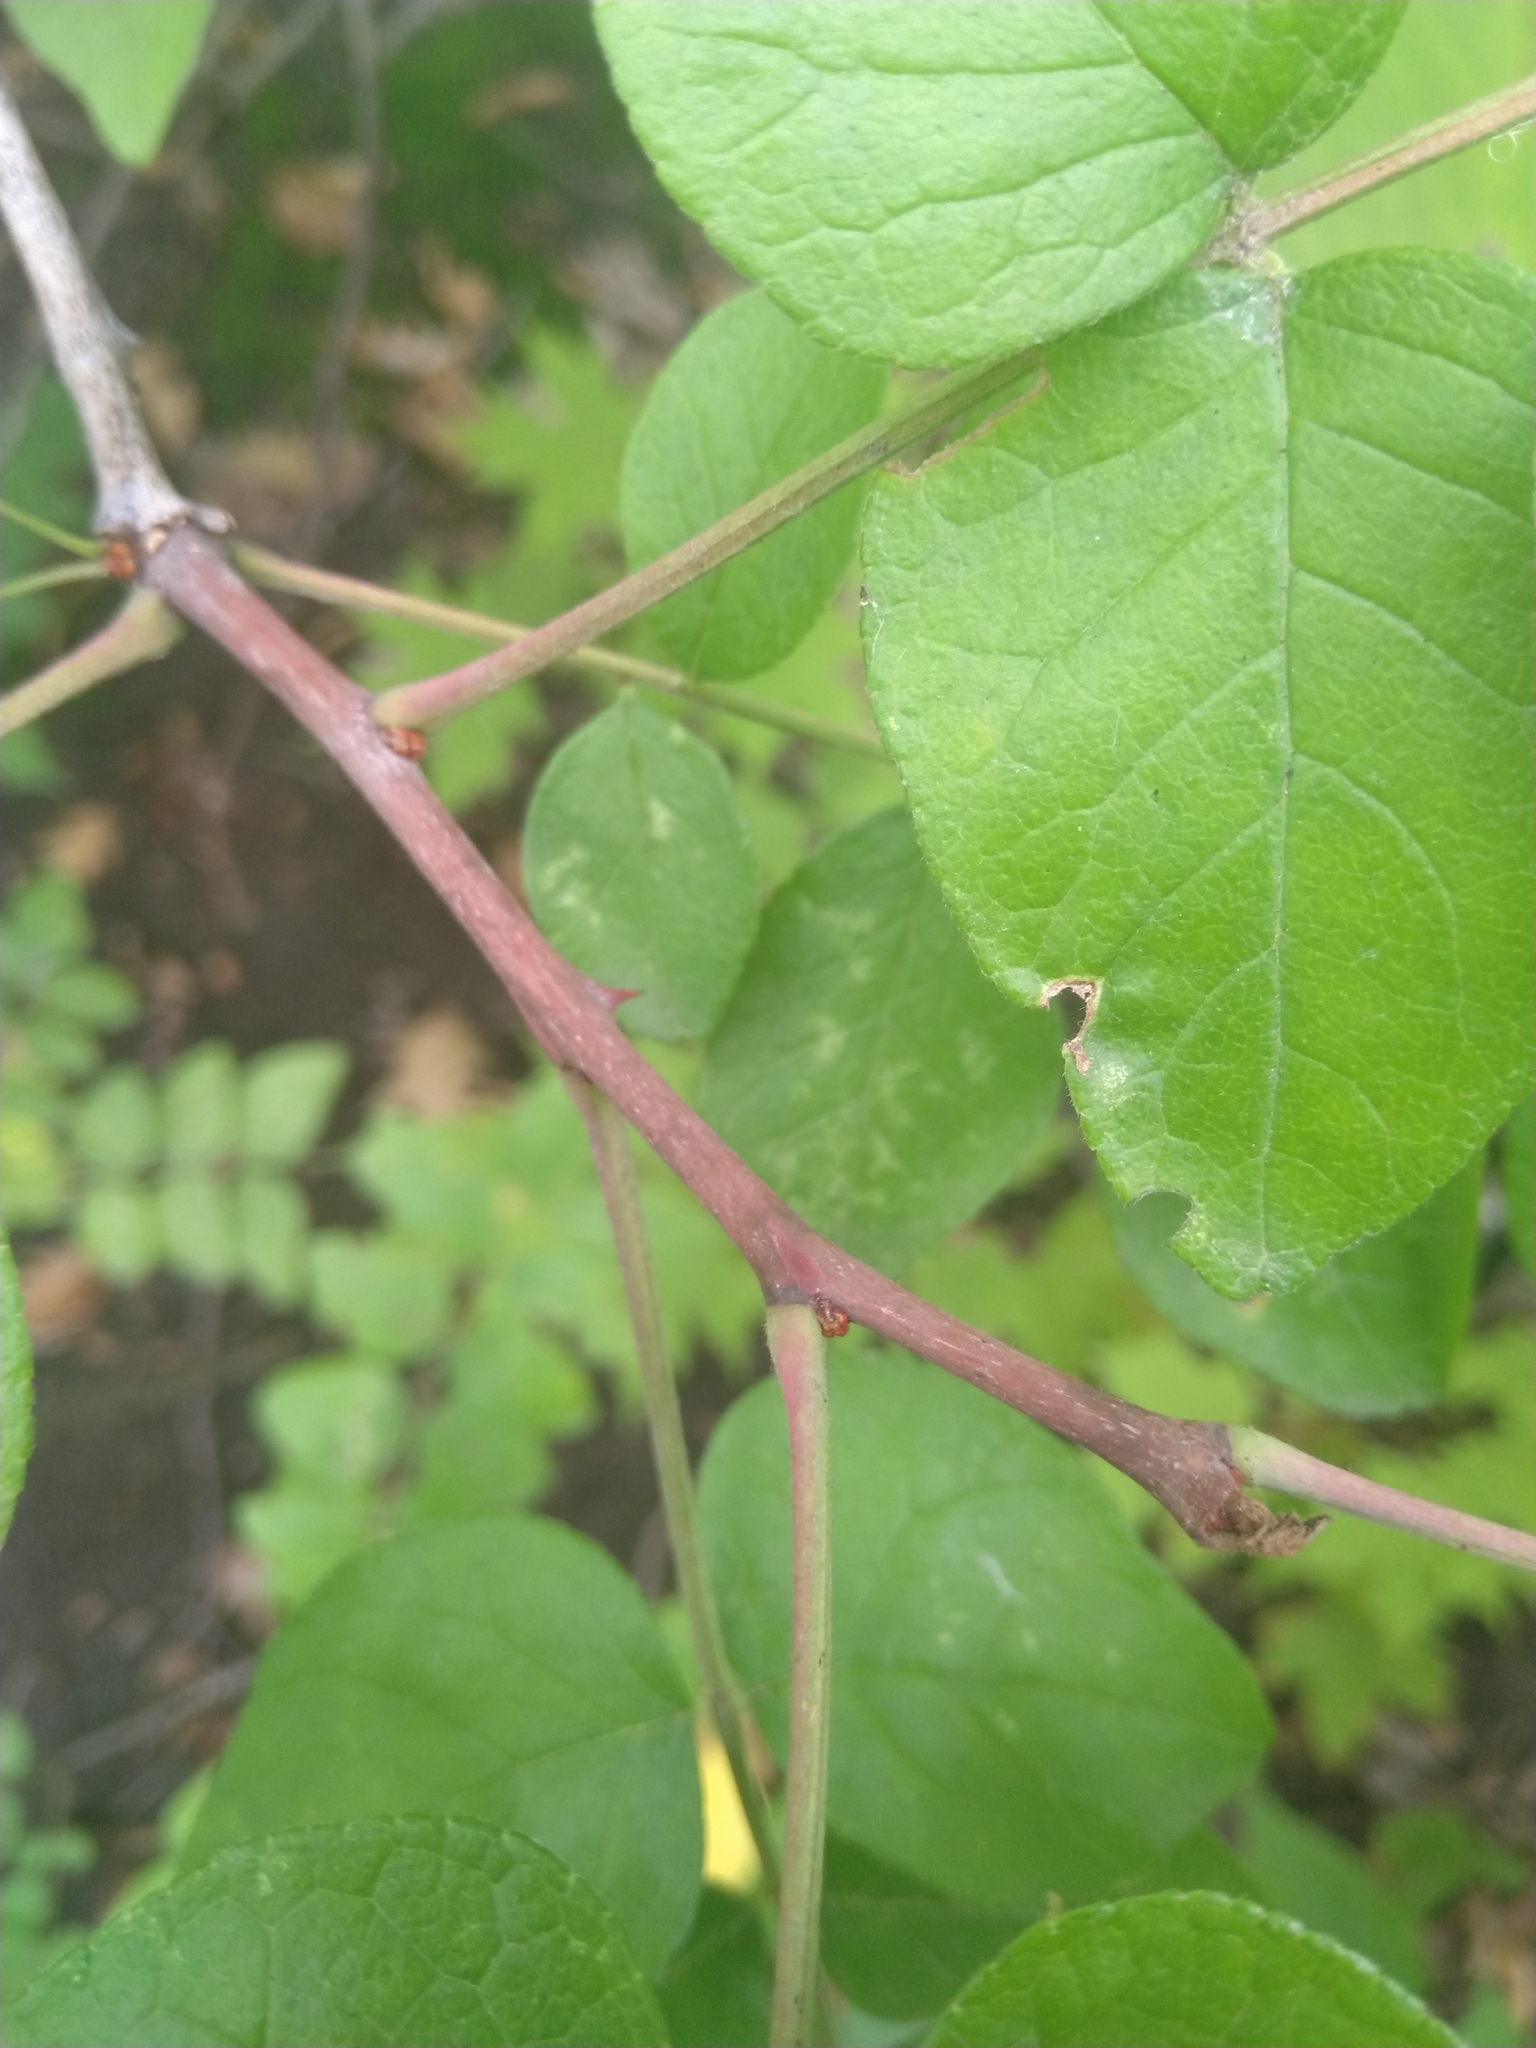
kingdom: Plantae
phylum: Tracheophyta
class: Magnoliopsida
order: Sapindales
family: Rutaceae
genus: Zanthoxylum
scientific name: Zanthoxylum americanum
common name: Northern prickly-ash
